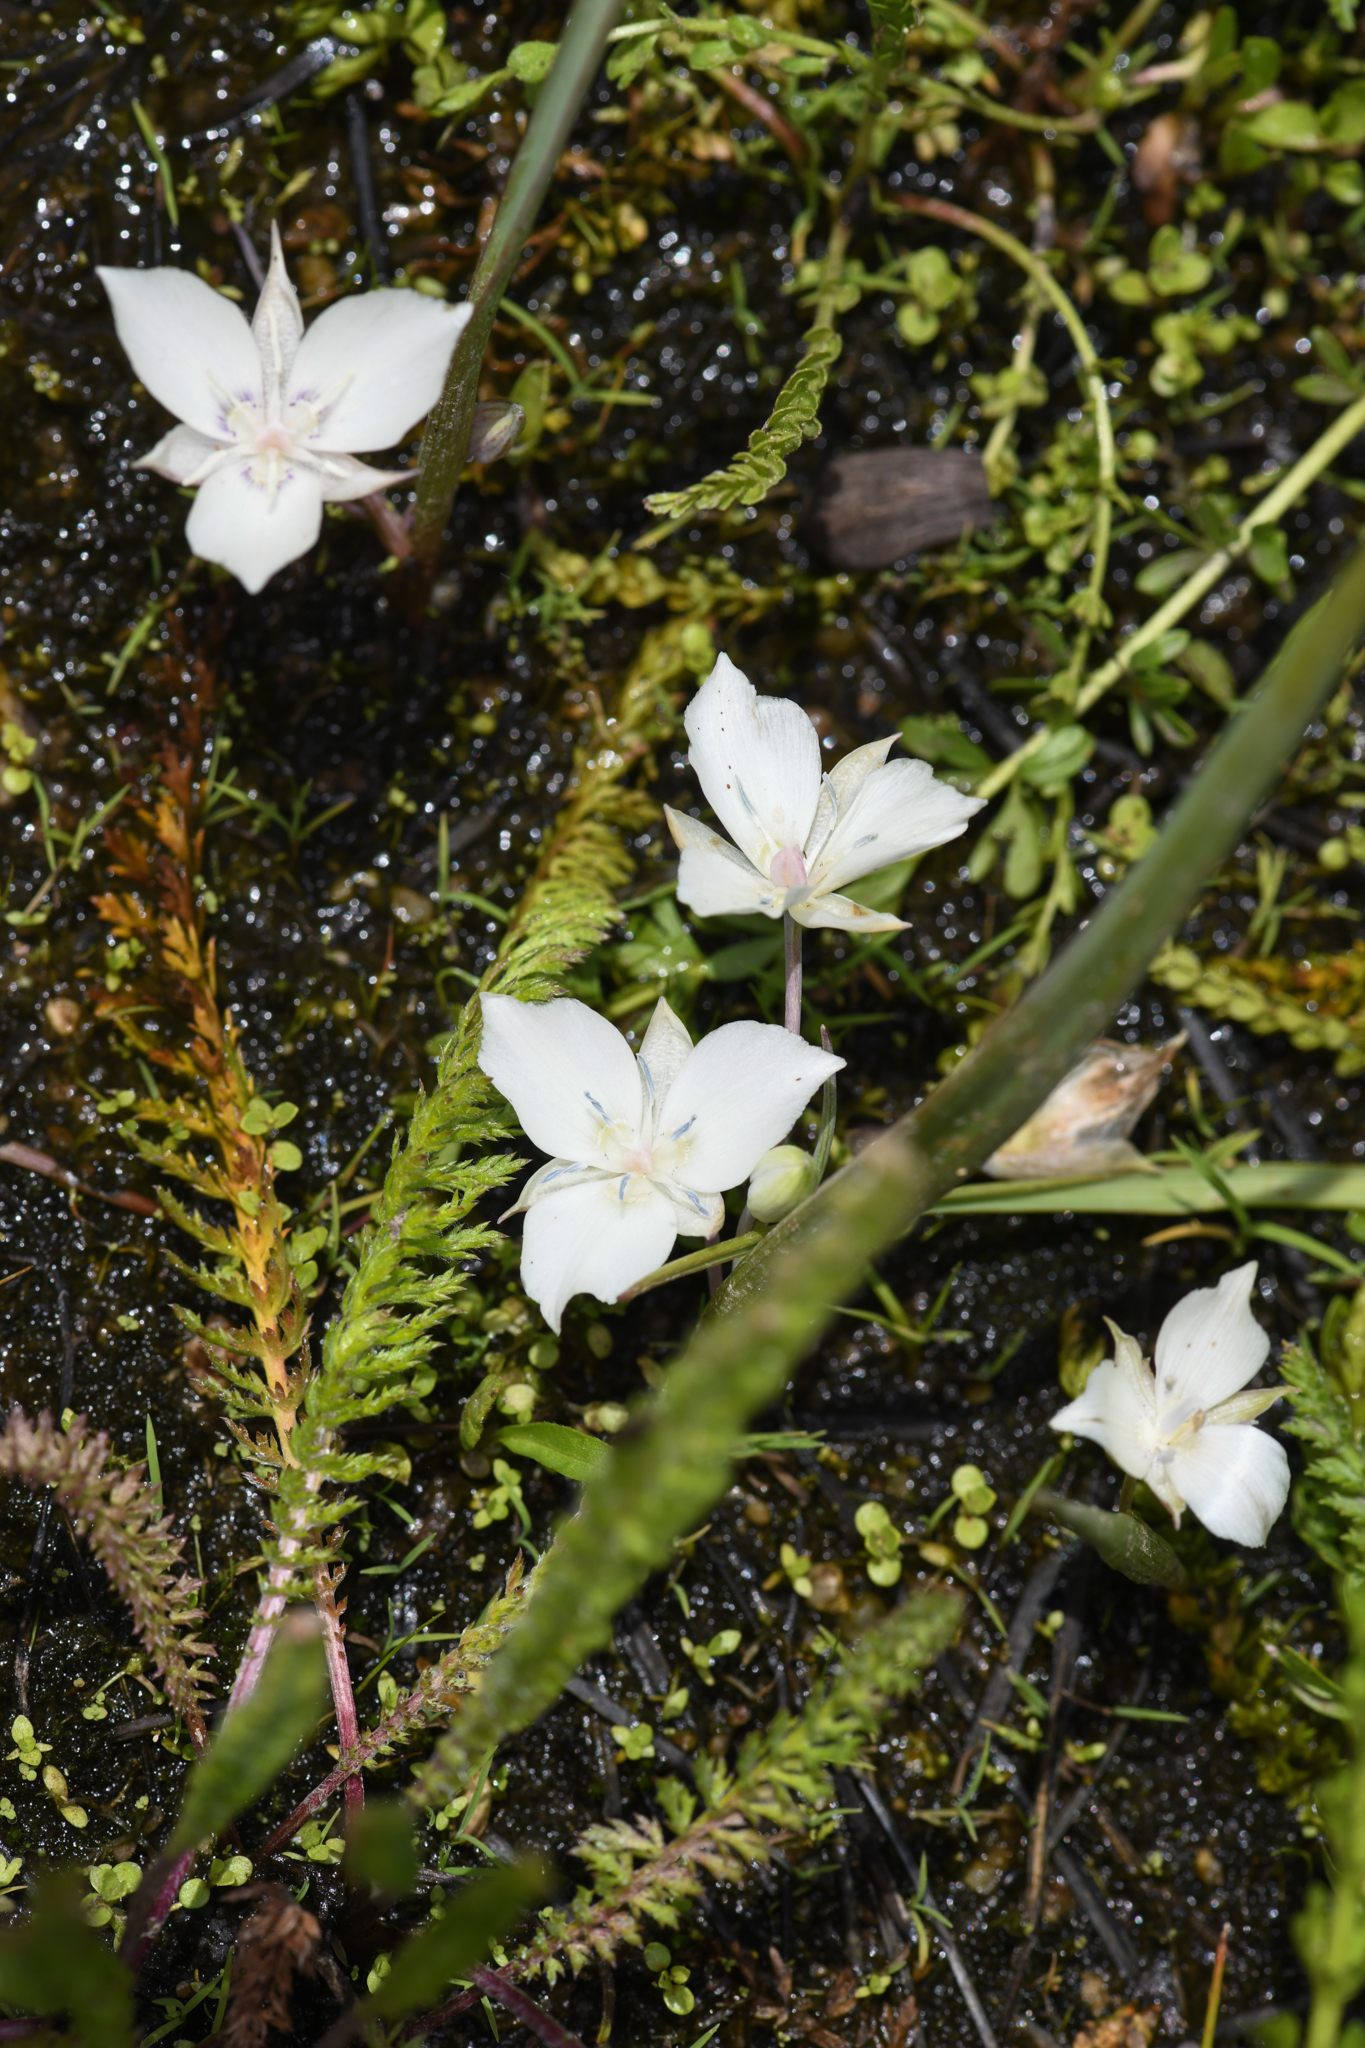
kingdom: Plantae
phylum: Tracheophyta
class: Liliopsida
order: Liliales
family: Liliaceae
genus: Calochortus
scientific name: Calochortus minimus
